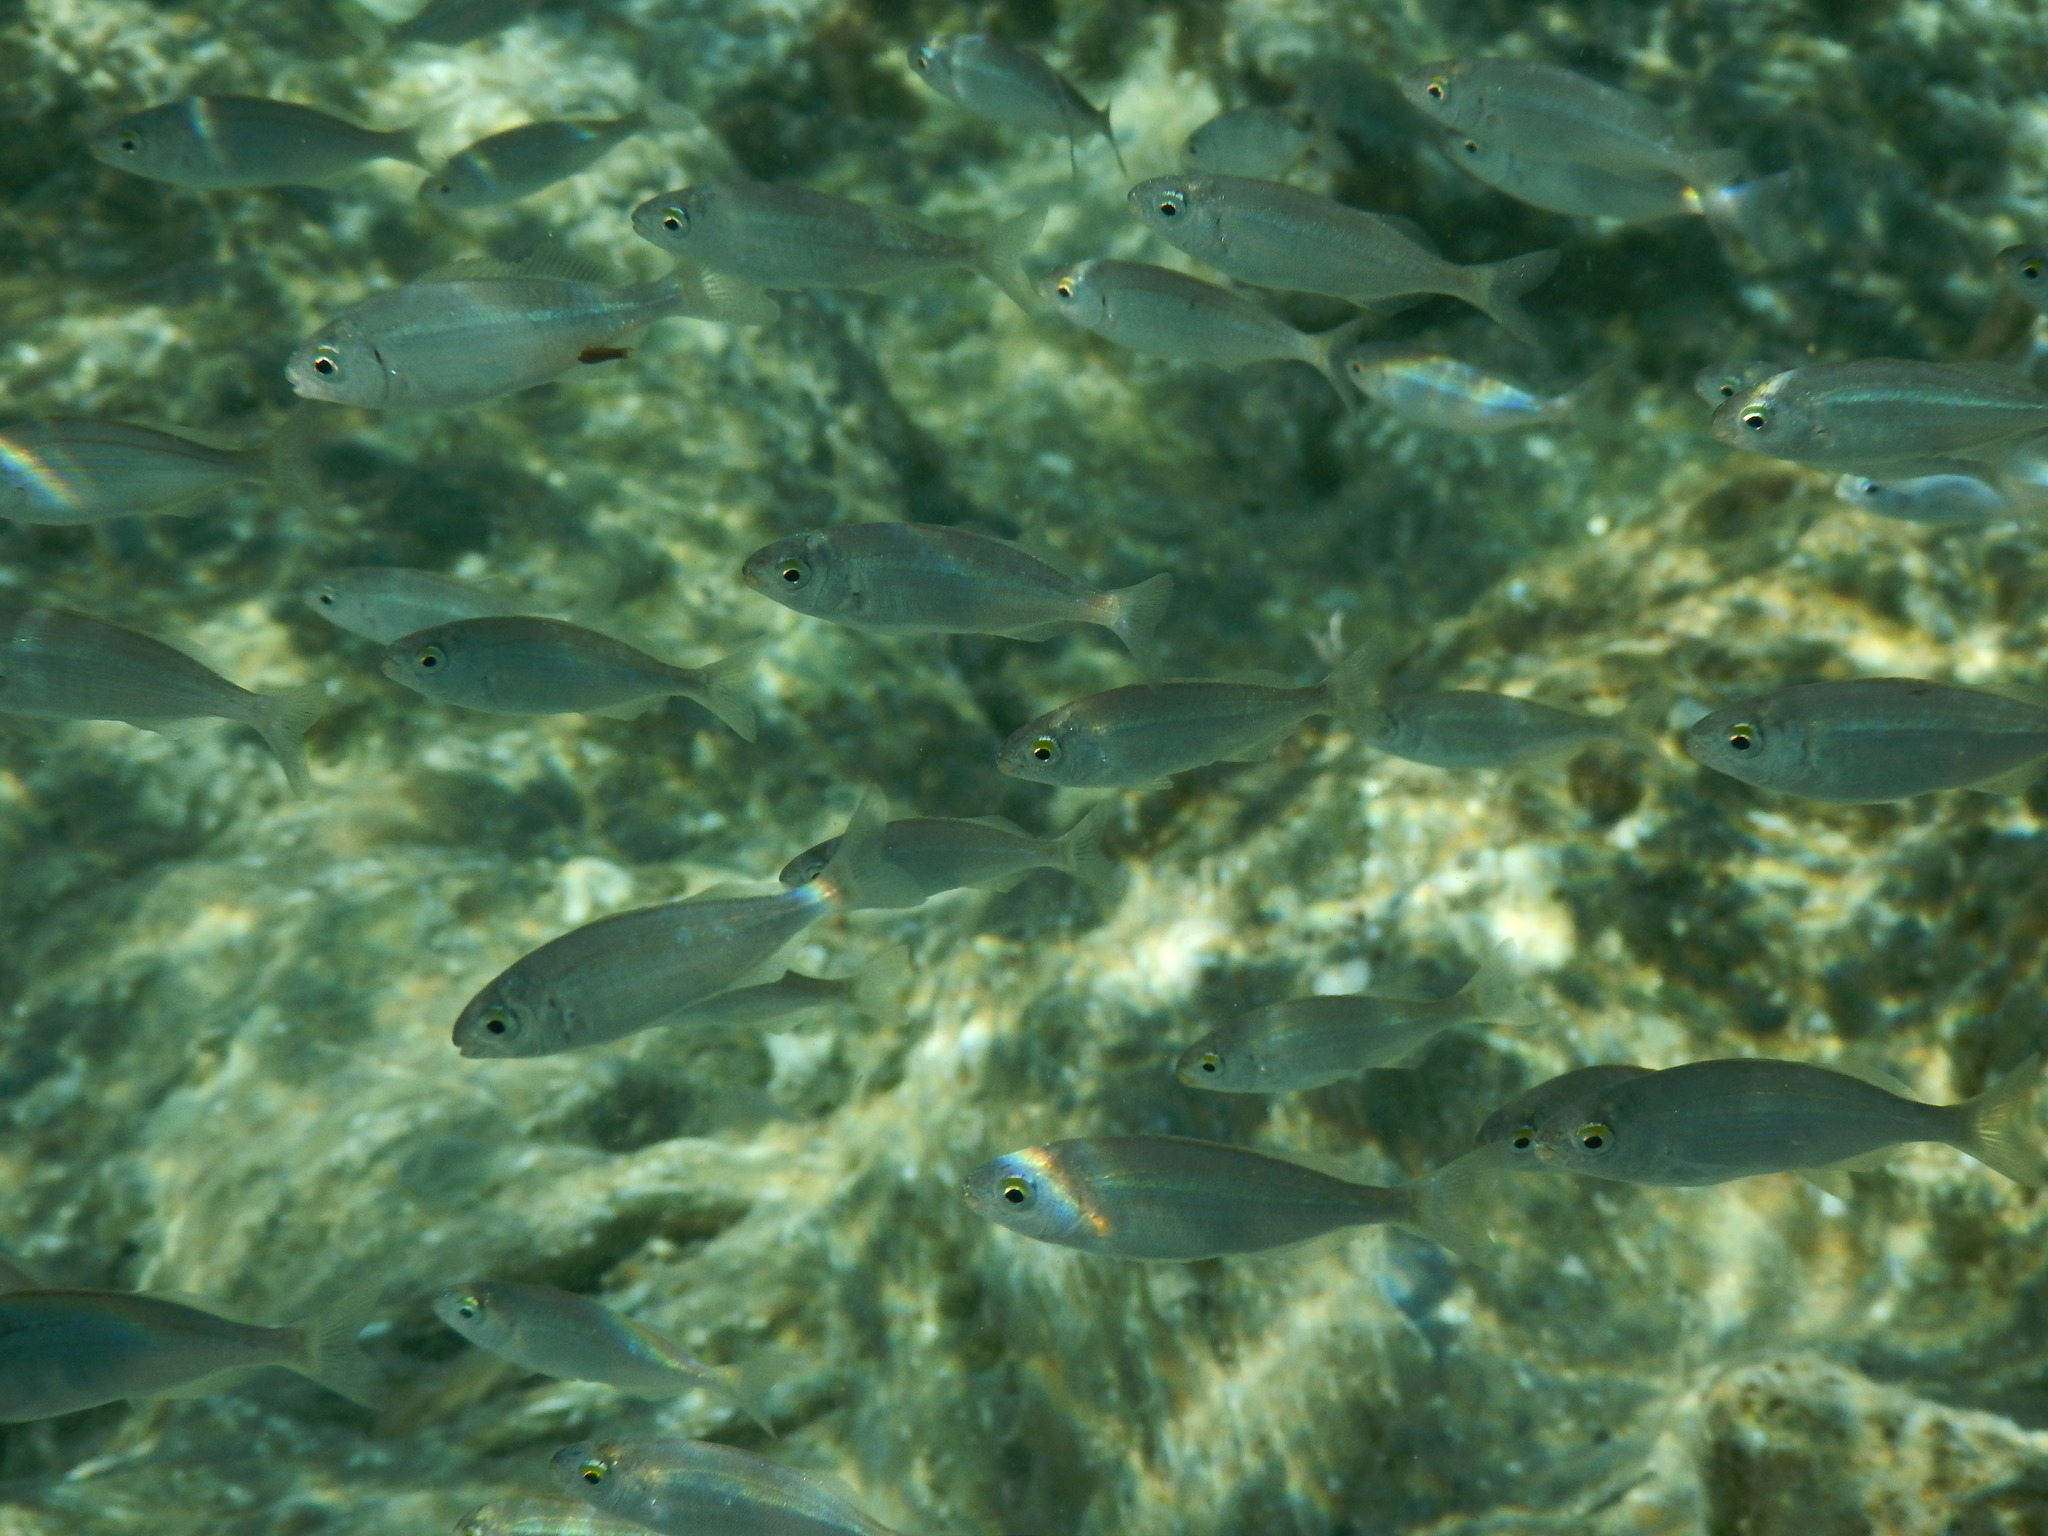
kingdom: Animalia
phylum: Chordata
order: Perciformes
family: Sparidae
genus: Sarpa
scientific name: Sarpa salpa
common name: Salema
